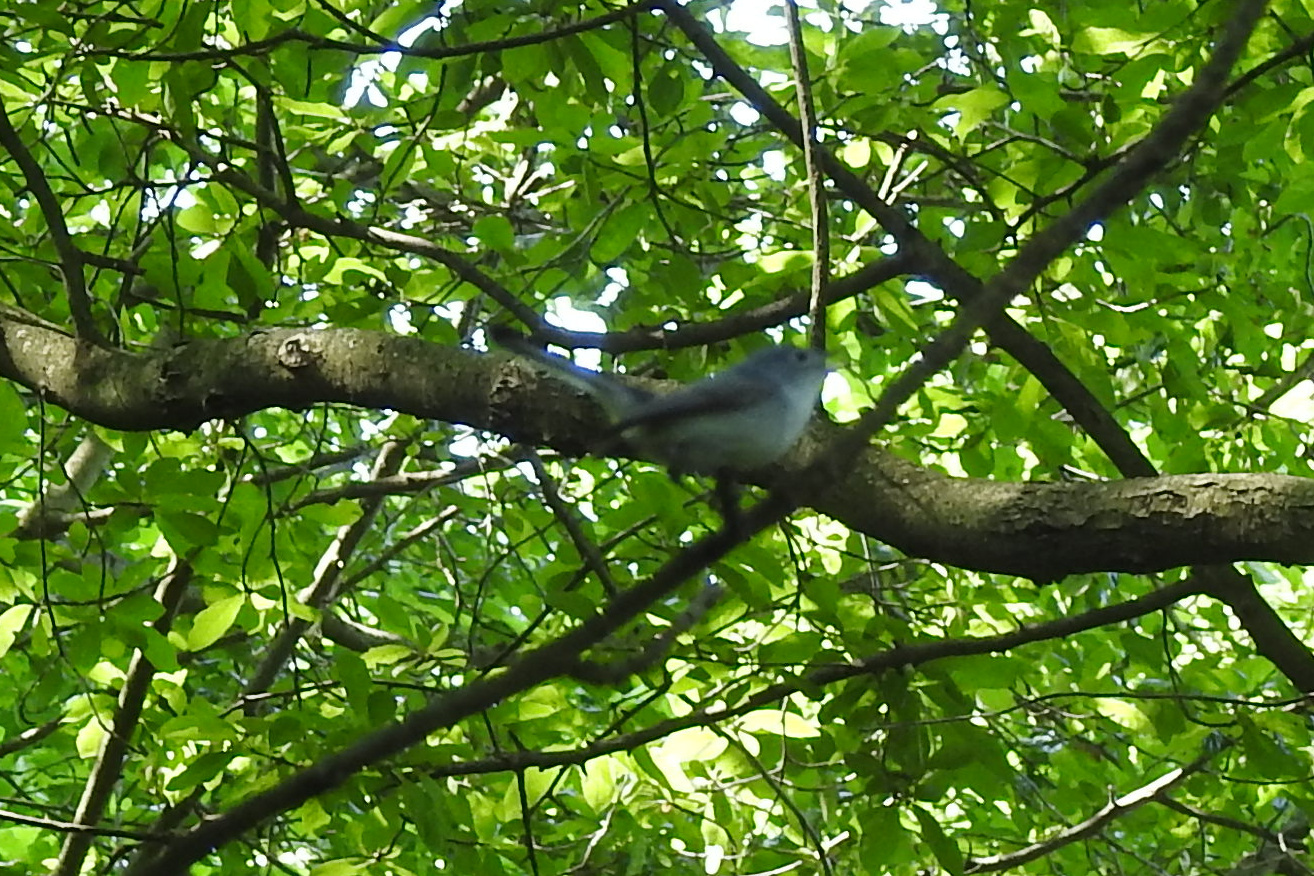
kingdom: Animalia
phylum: Chordata
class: Aves
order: Passeriformes
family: Polioptilidae
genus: Polioptila
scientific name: Polioptila caerulea
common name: Blue-gray gnatcatcher
